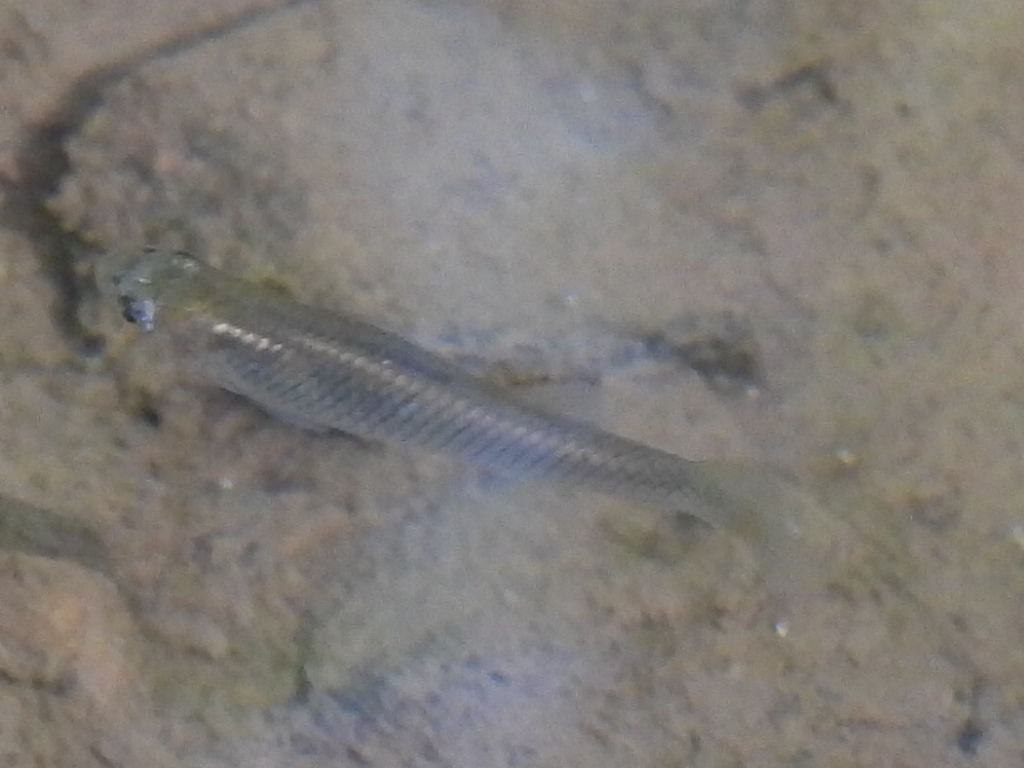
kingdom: Animalia
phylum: Chordata
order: Cyprinodontiformes
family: Poeciliidae
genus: Gambusia
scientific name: Gambusia holbrooki
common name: Eastern mosquitofish
